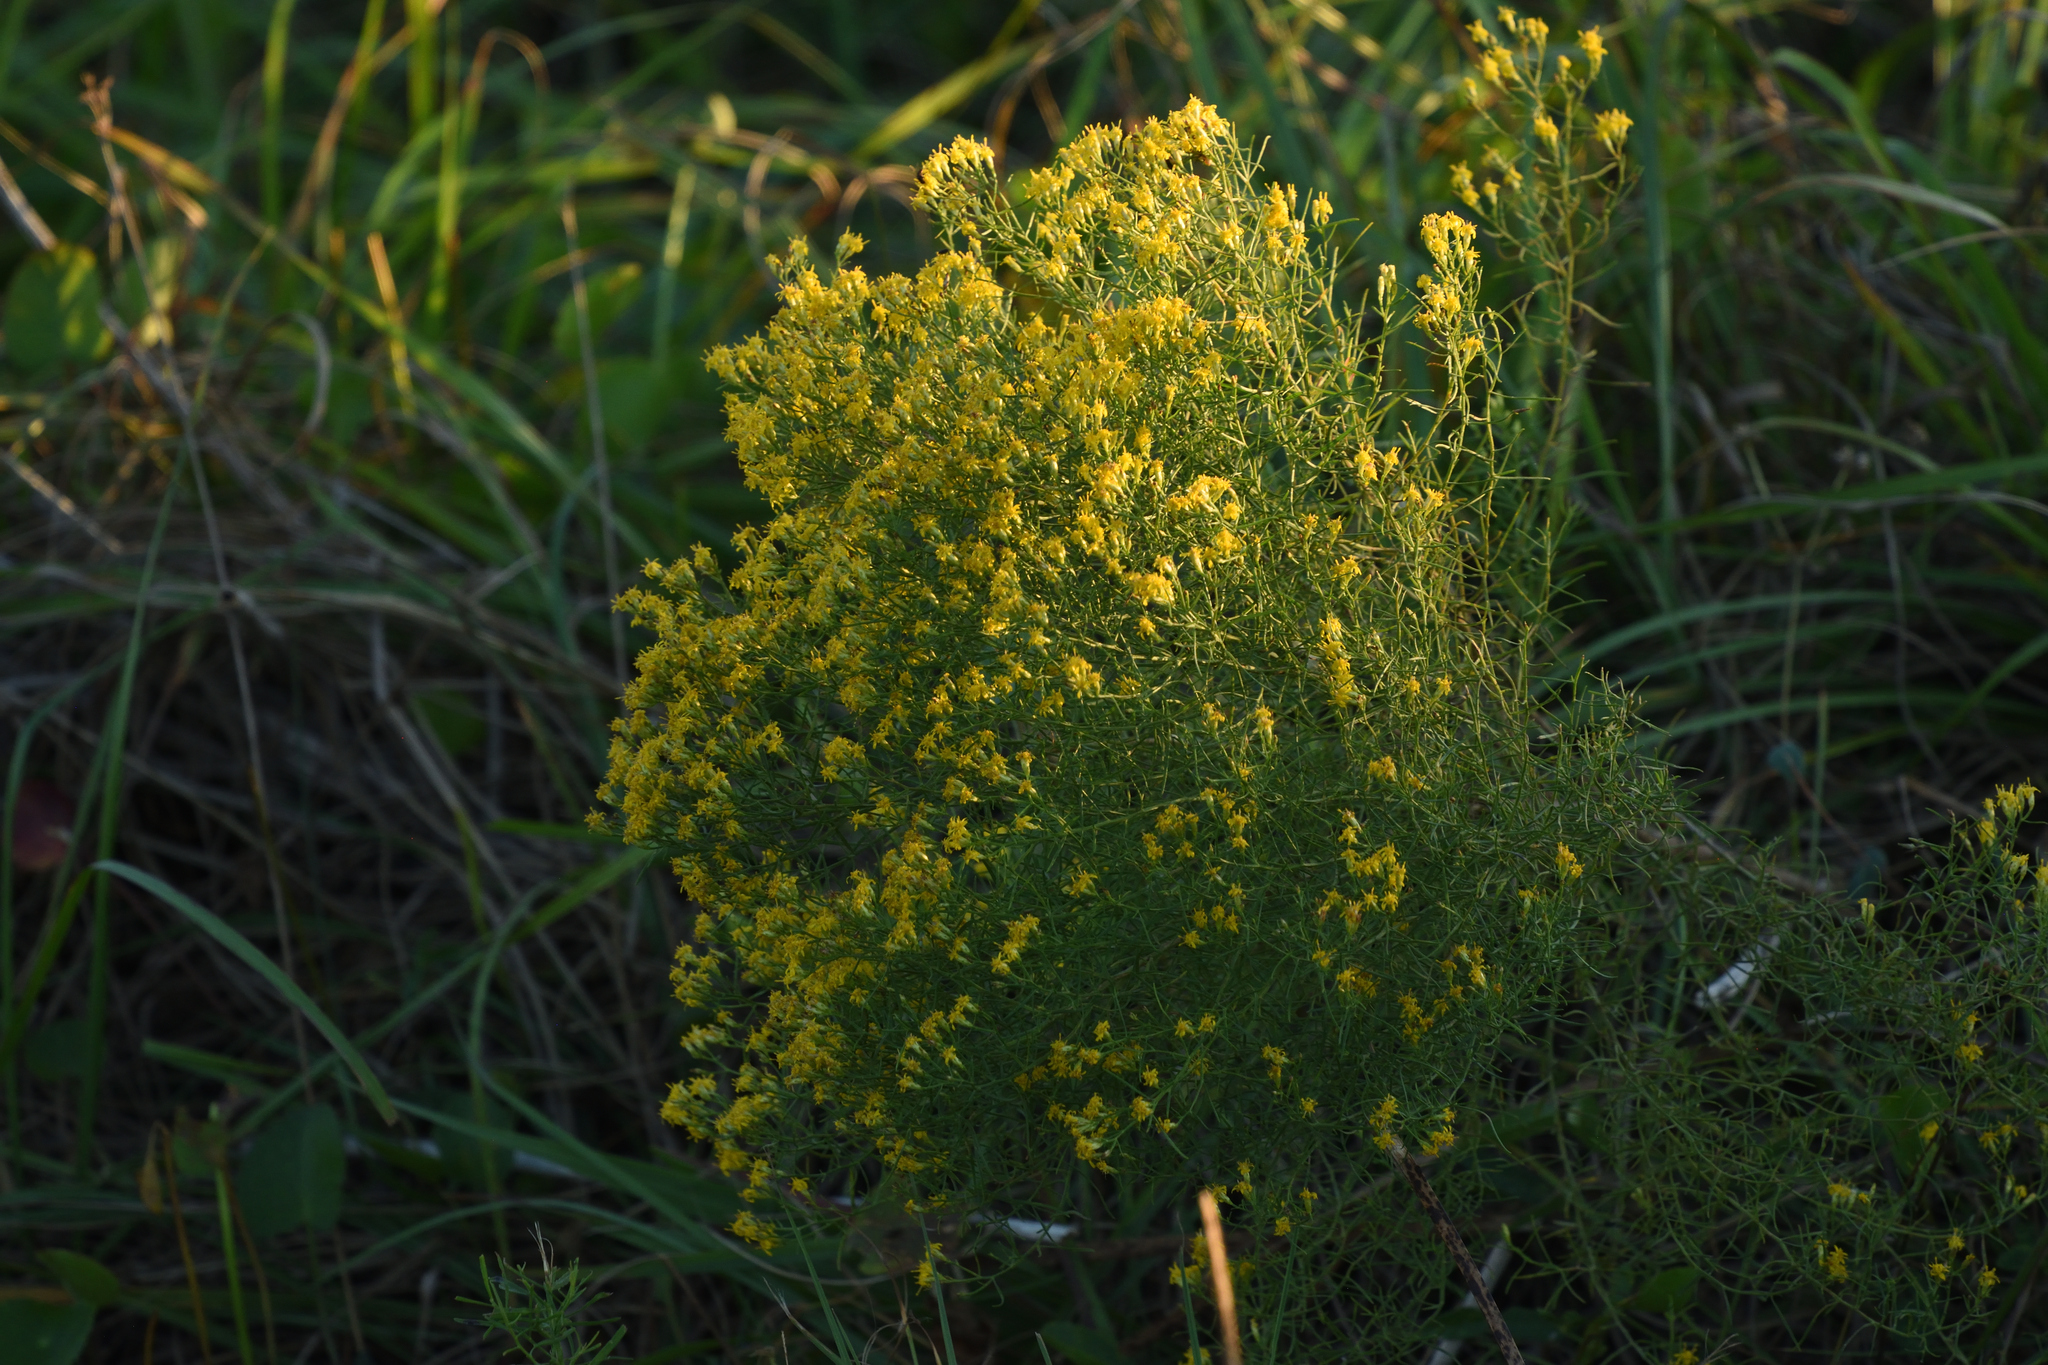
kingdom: Plantae
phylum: Tracheophyta
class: Magnoliopsida
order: Asterales
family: Asteraceae
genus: Euthamia
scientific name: Euthamia caroliniana
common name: Coastal plain goldentop
